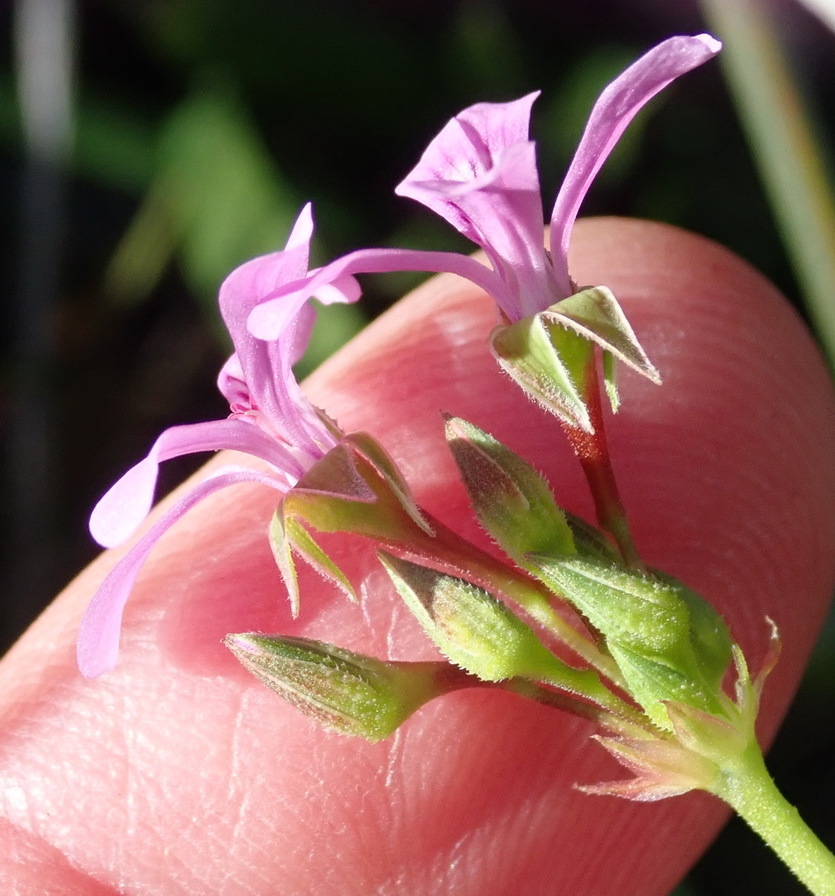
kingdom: Plantae
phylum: Tracheophyta
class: Magnoliopsida
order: Geraniales
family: Geraniaceae
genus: Pelargonium
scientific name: Pelargonium grossularioides
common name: Gooseberry geranium
